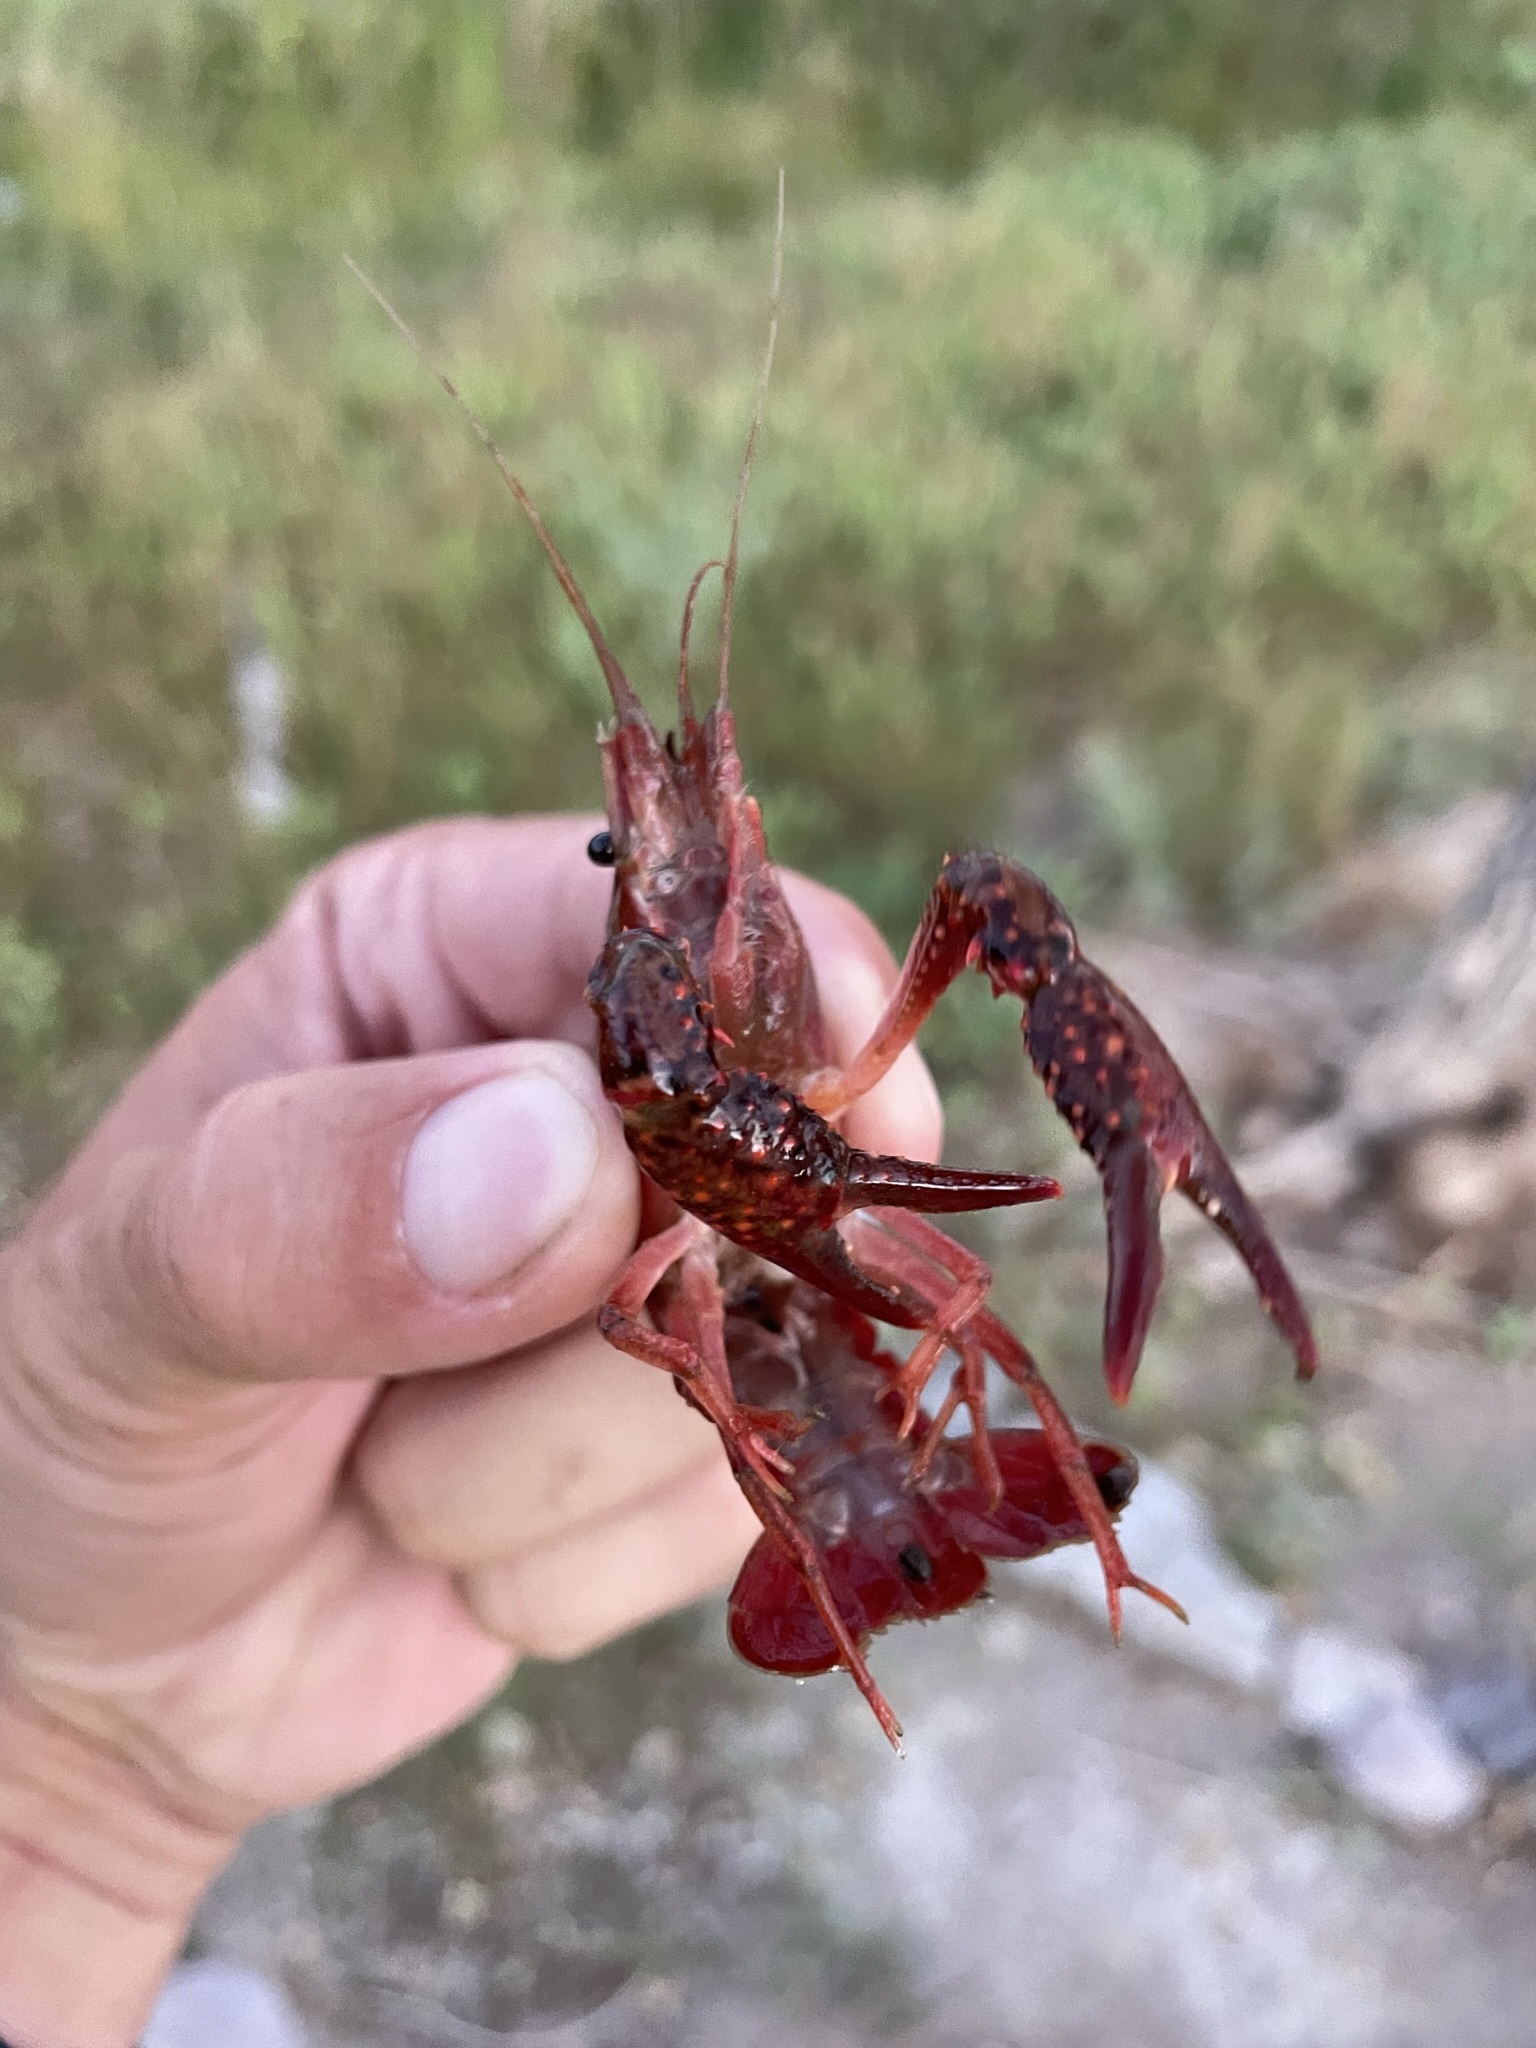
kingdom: Animalia
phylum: Arthropoda
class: Malacostraca
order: Decapoda
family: Cambaridae
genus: Procambarus
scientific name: Procambarus clarkii
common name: Red swamp crayfish
